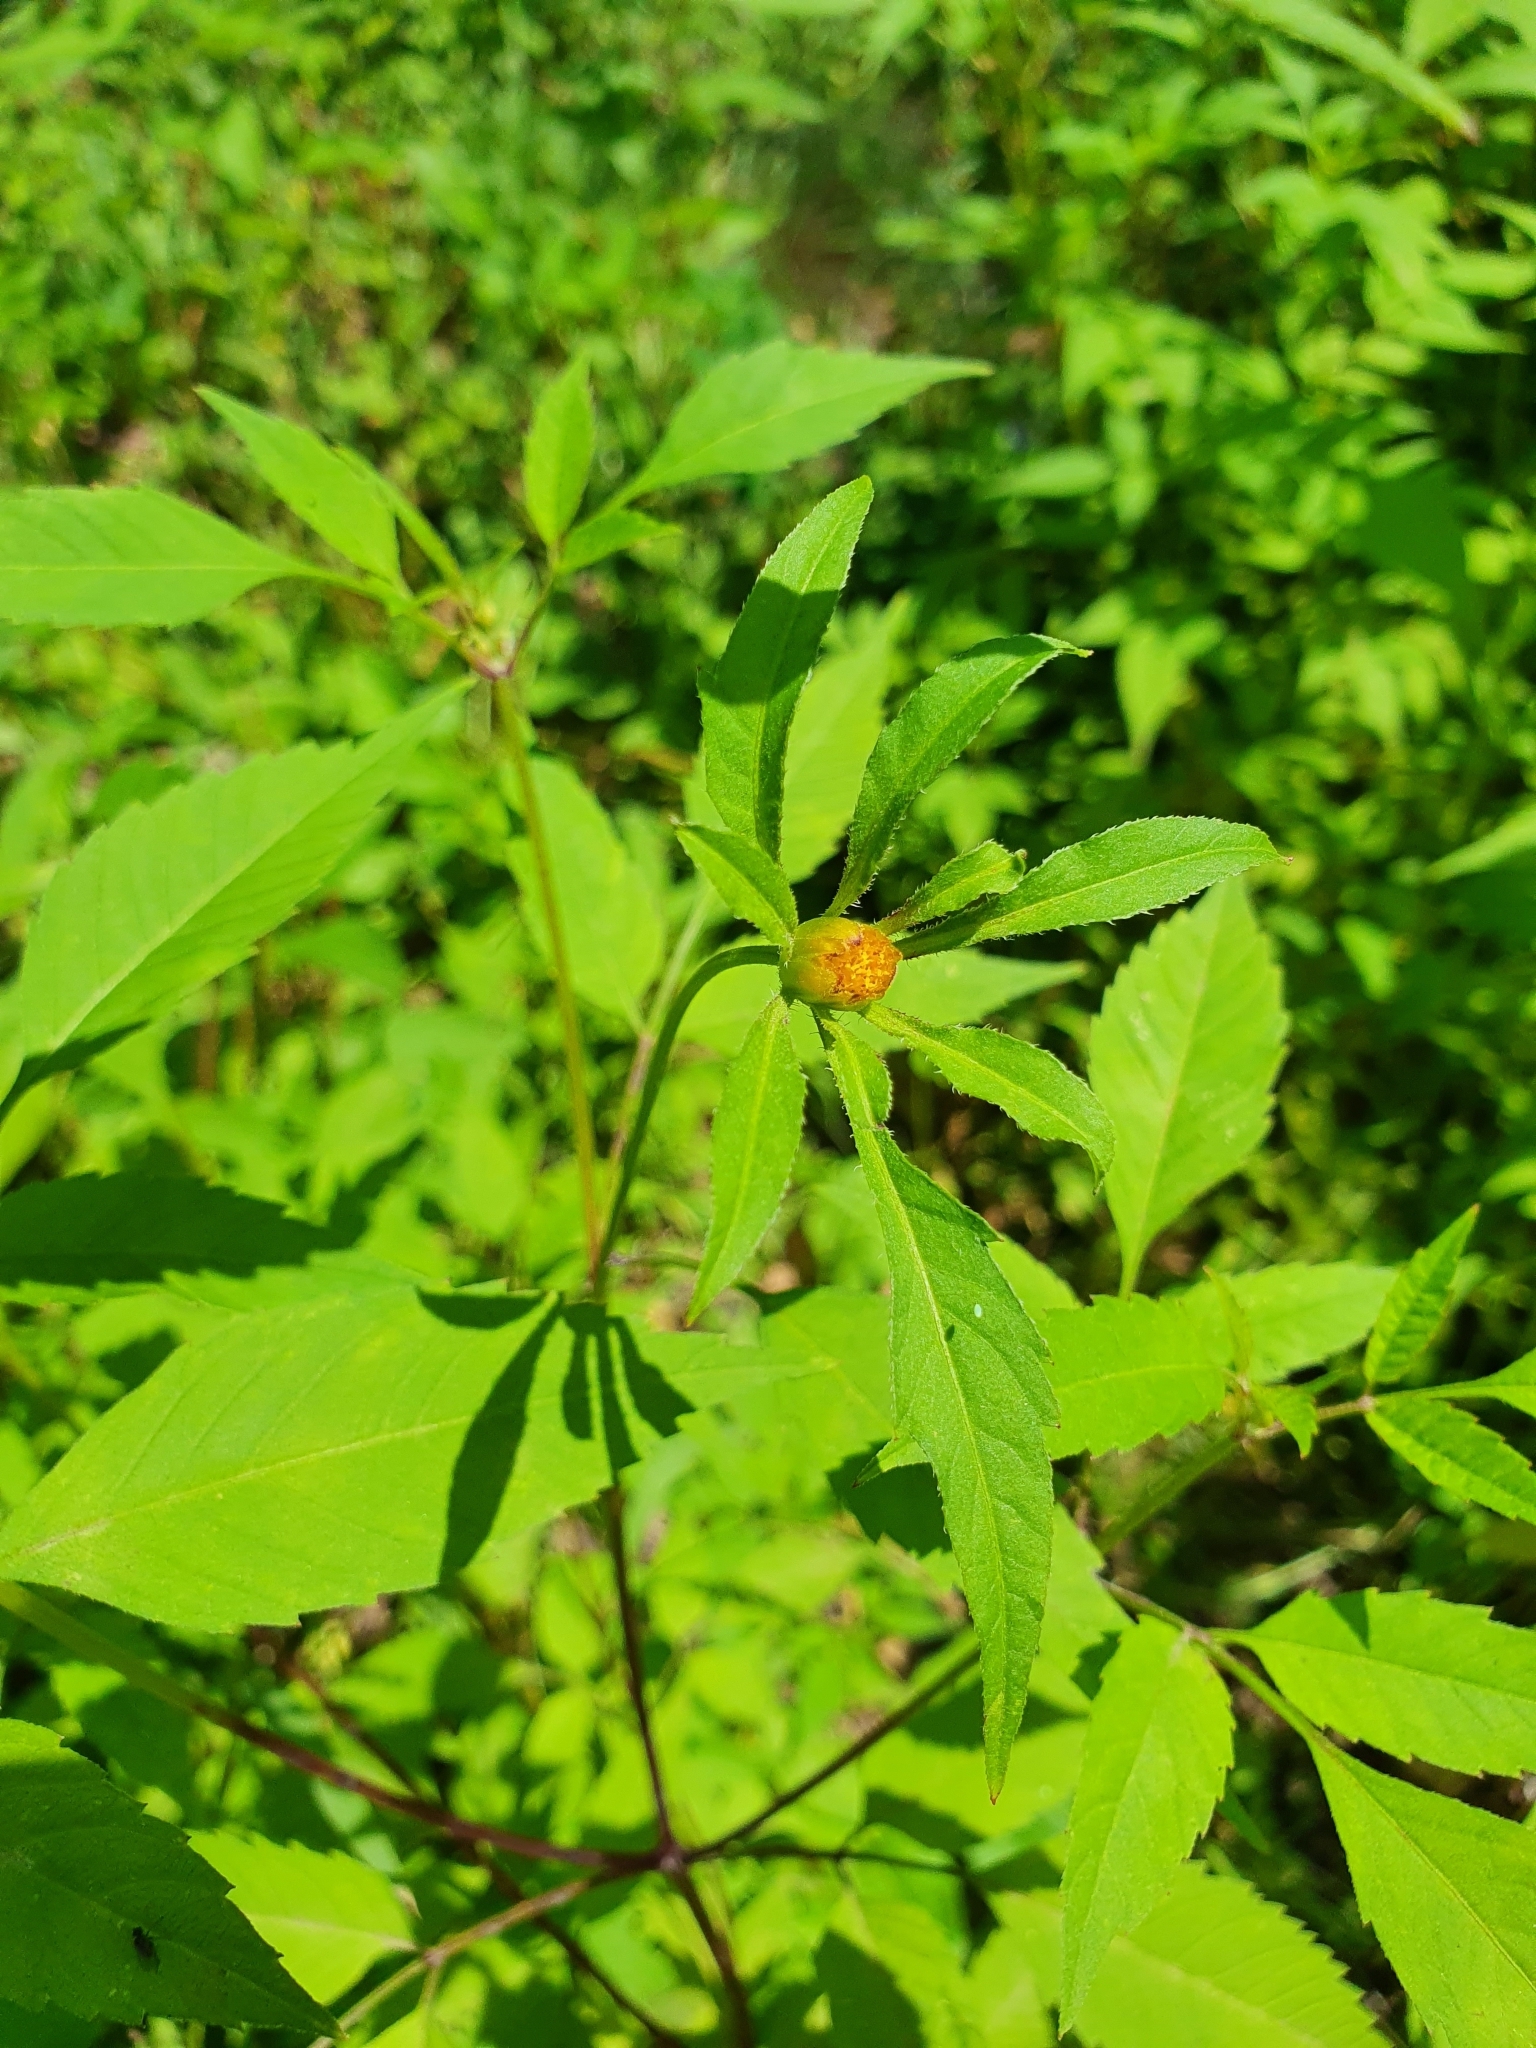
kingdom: Plantae
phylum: Tracheophyta
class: Magnoliopsida
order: Asterales
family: Asteraceae
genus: Bidens
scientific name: Bidens frondosa
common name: Beggarticks
